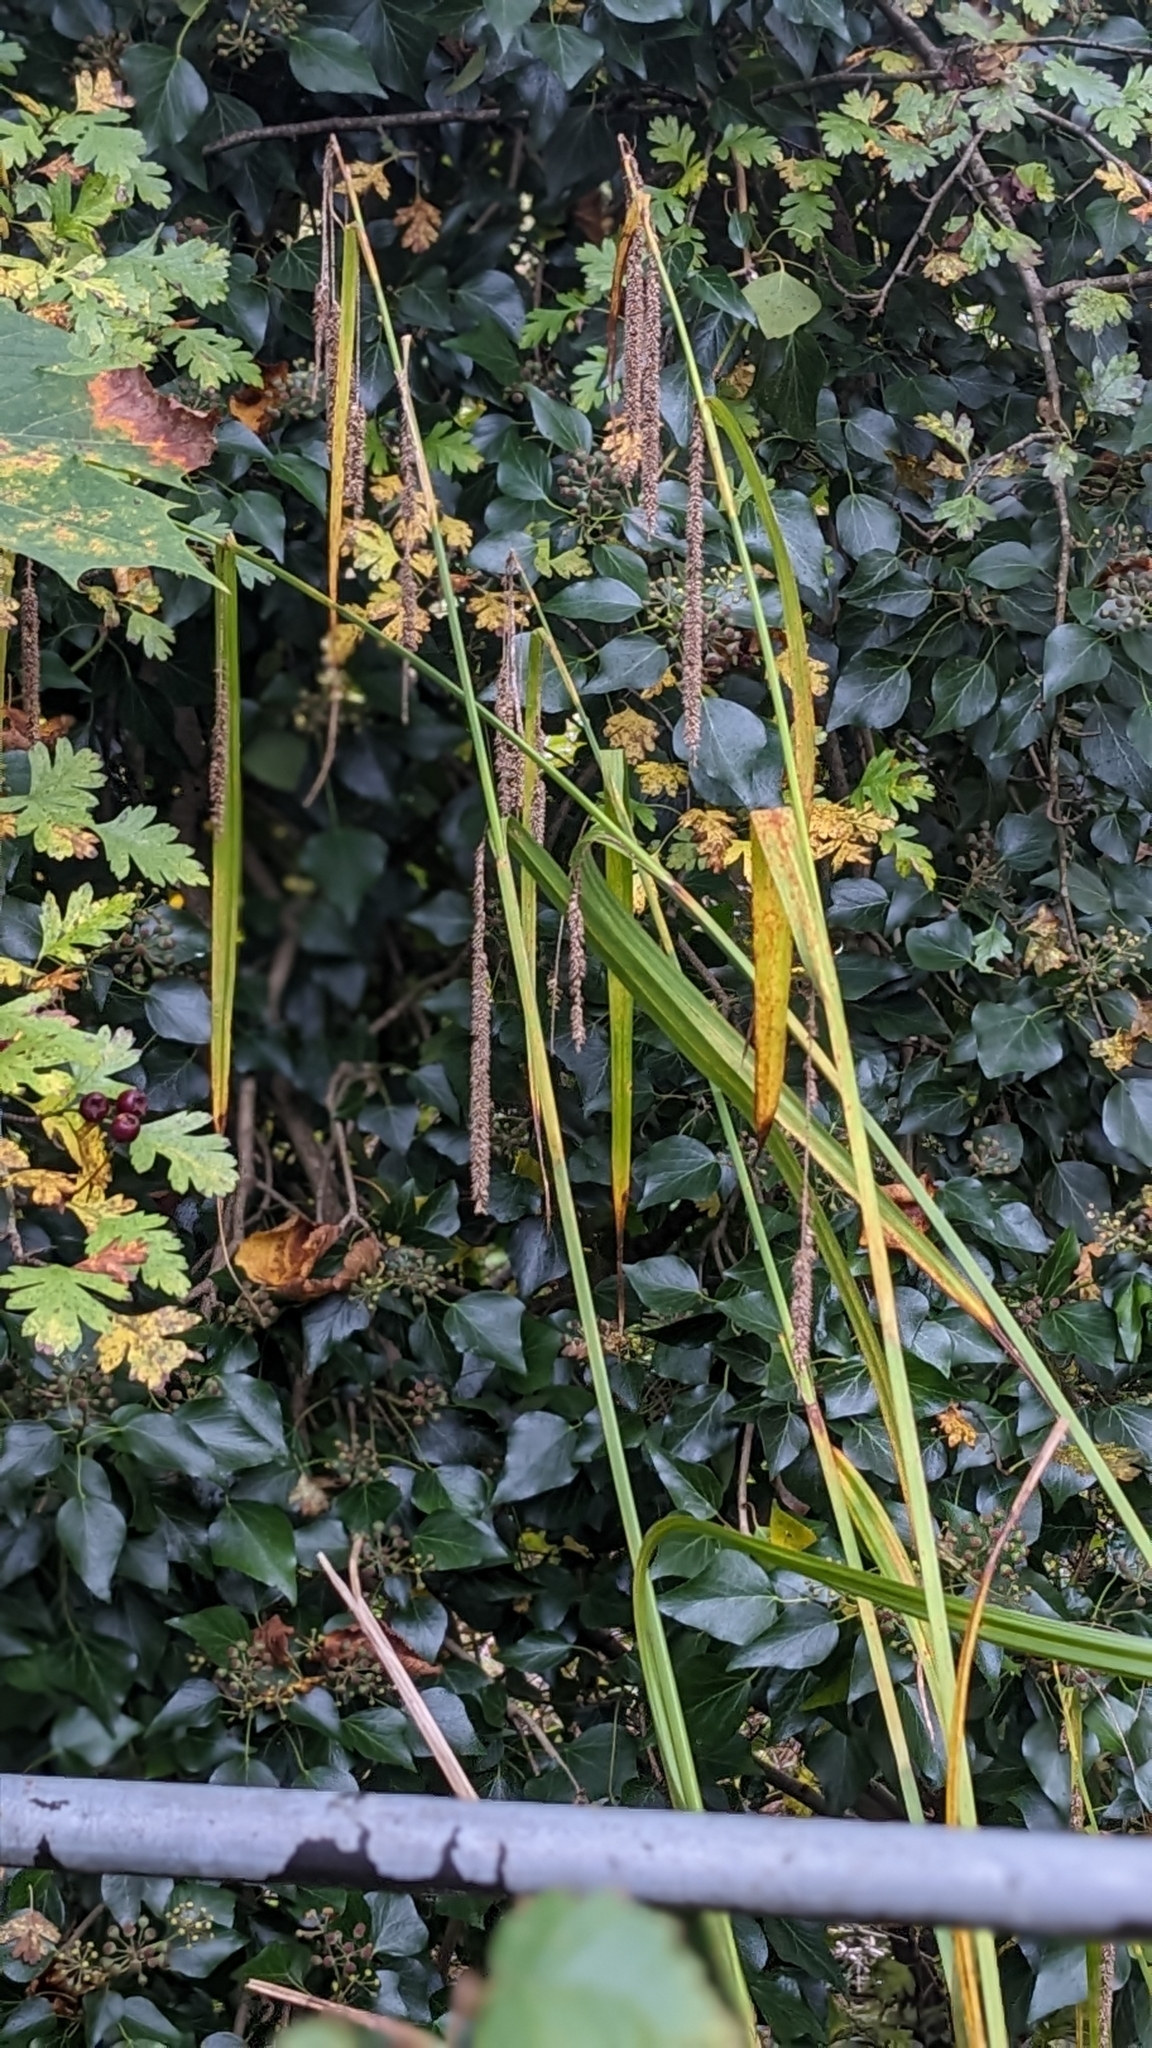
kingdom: Plantae
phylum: Tracheophyta
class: Liliopsida
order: Poales
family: Cyperaceae
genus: Carex
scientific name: Carex pendula
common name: Pendulous sedge
